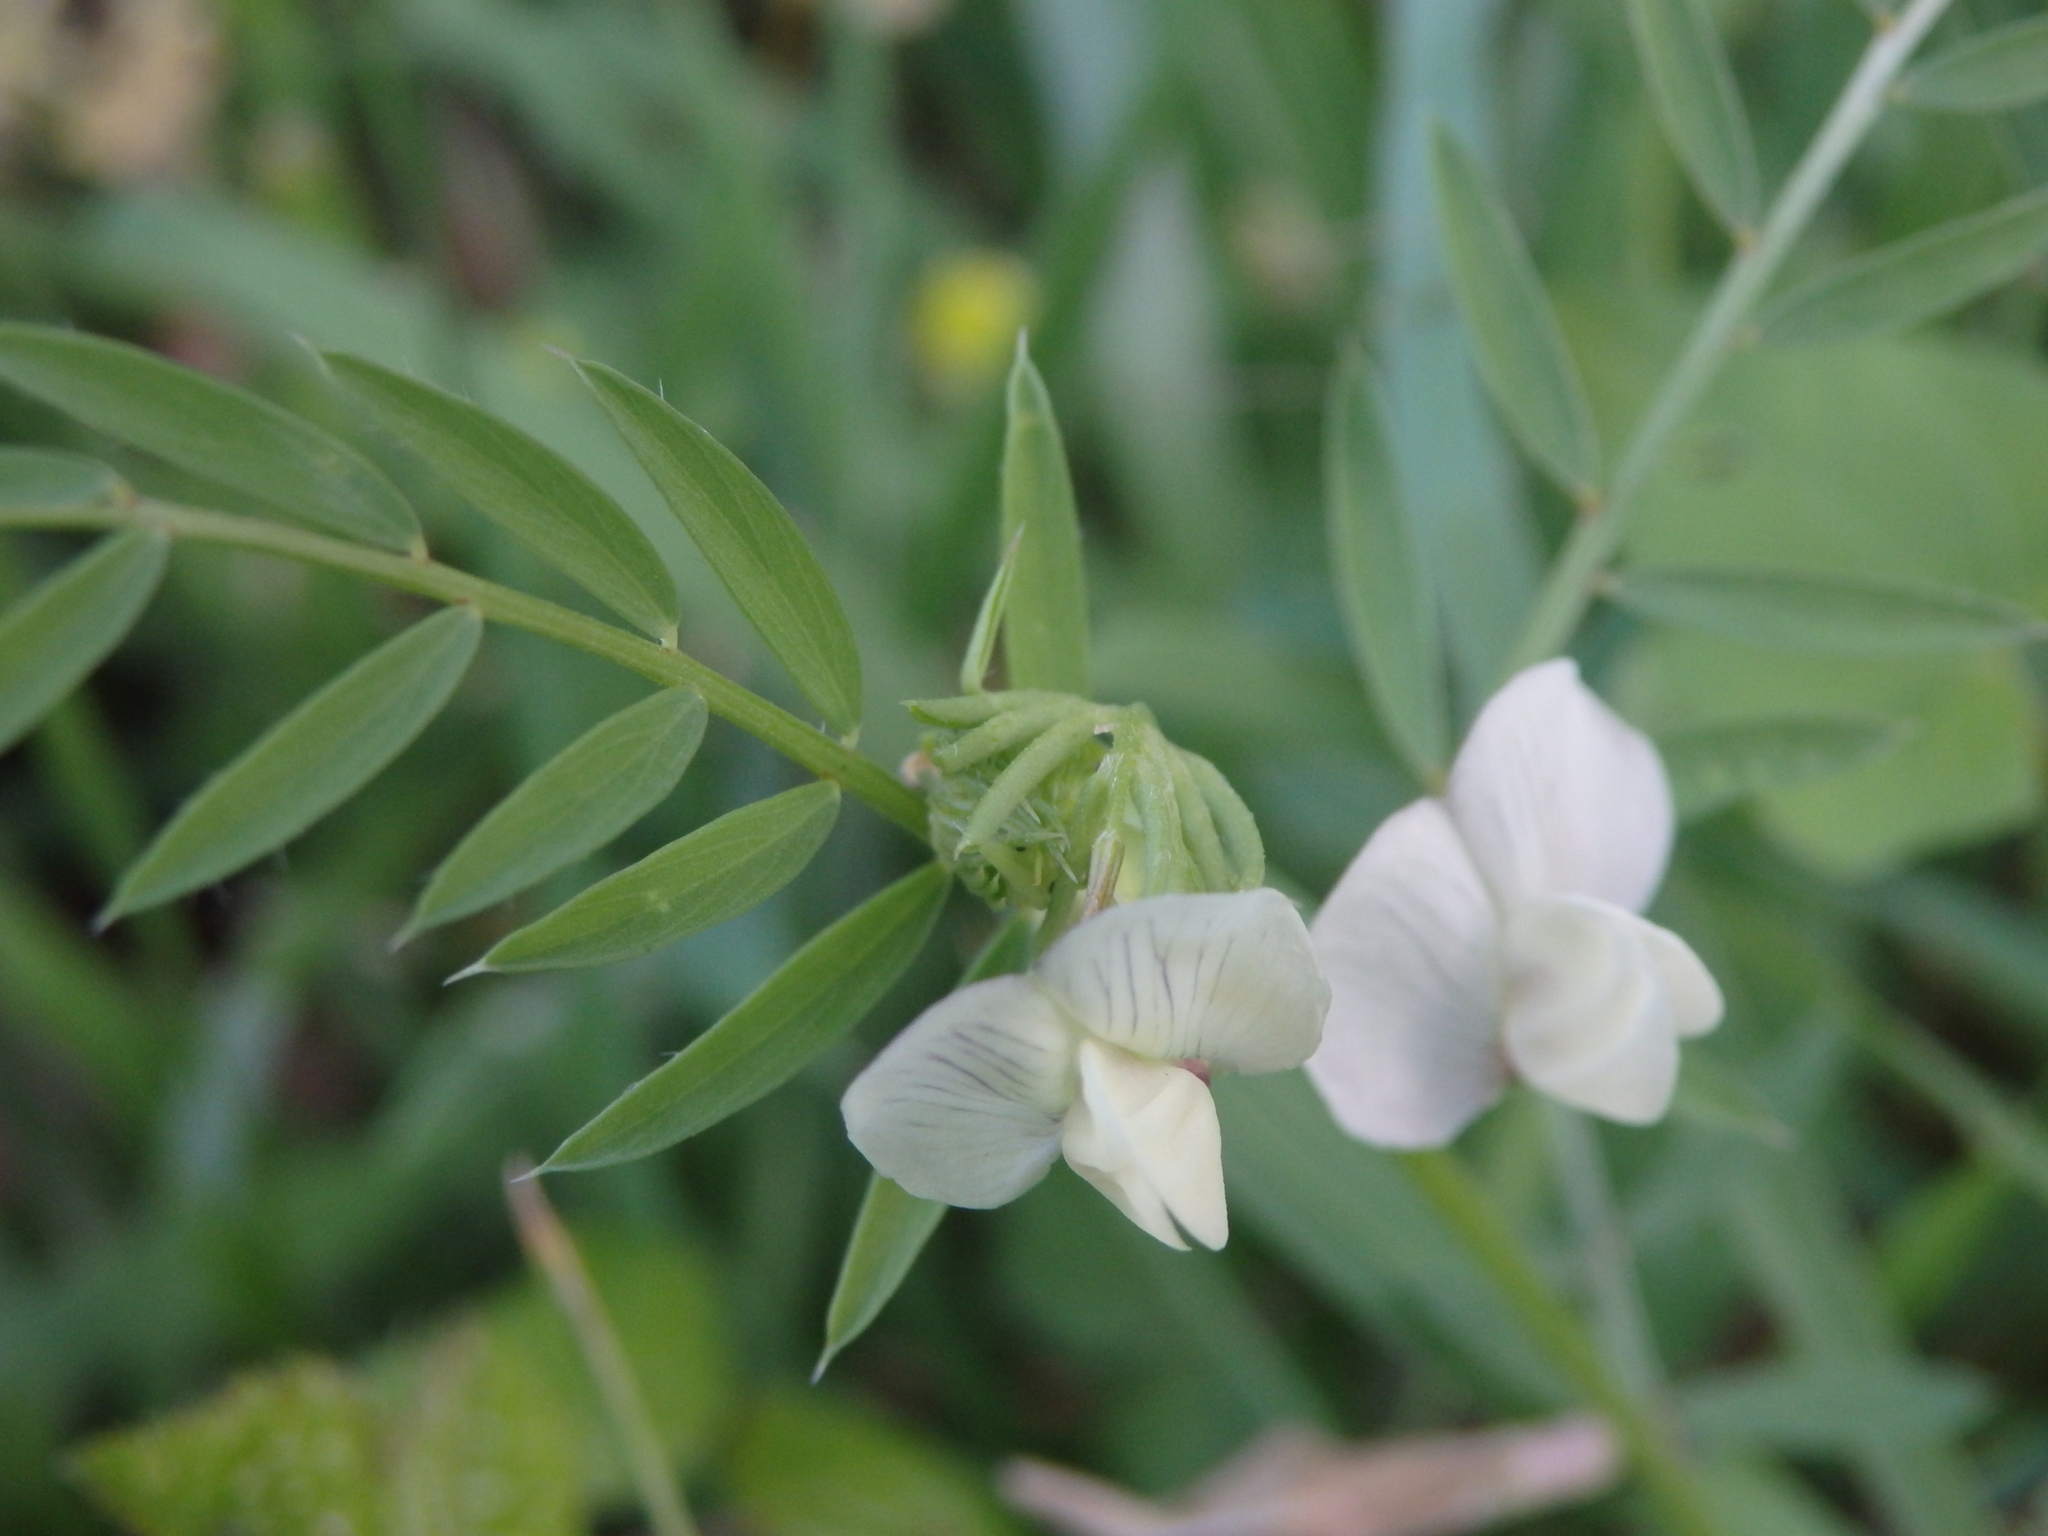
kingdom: Plantae
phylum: Tracheophyta
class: Magnoliopsida
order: Fabales
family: Fabaceae
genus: Vicia
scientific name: Vicia lutea
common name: Smooth yellow vetch
